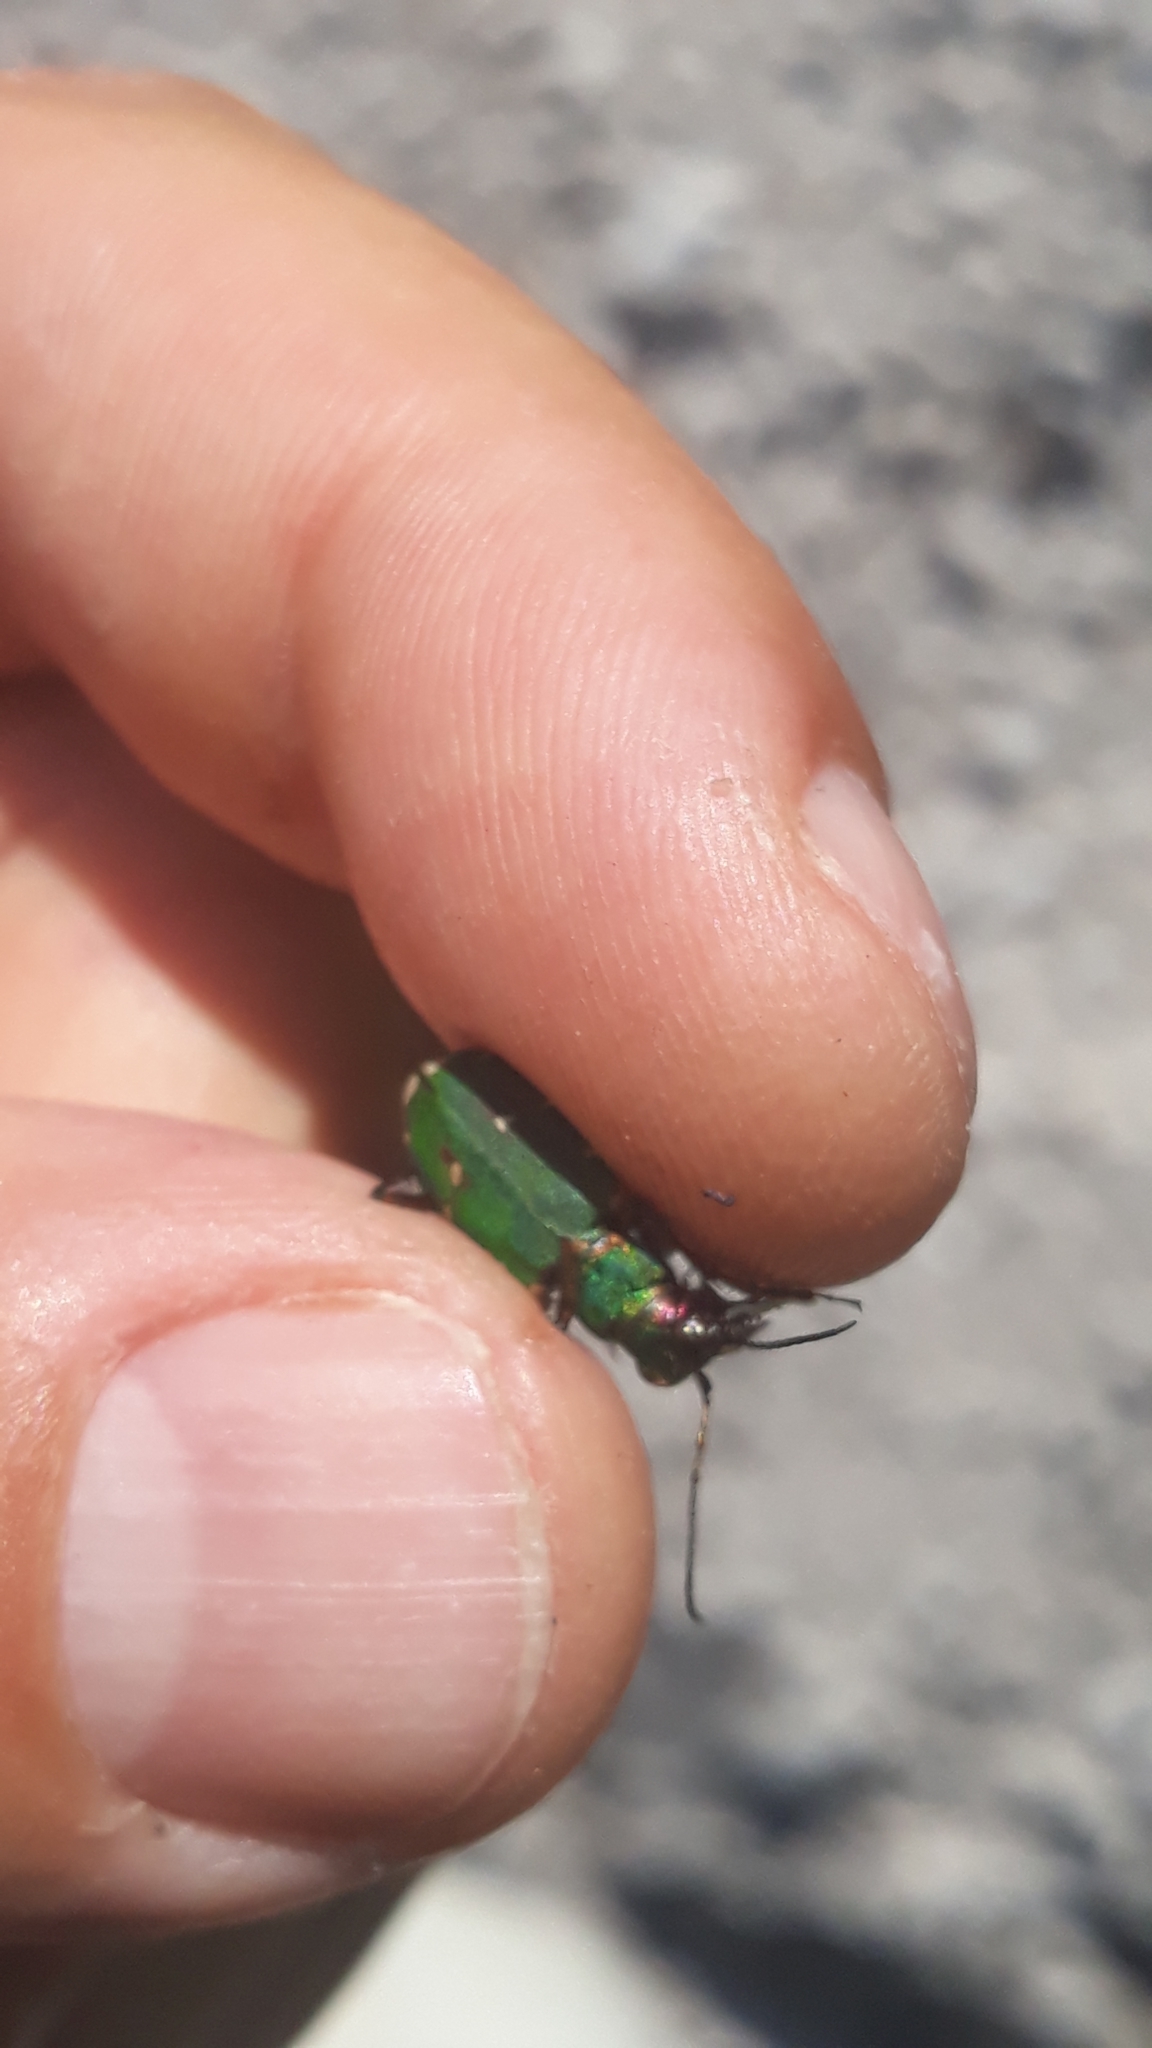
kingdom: Animalia
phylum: Arthropoda
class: Insecta
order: Coleoptera
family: Carabidae
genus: Cicindela
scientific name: Cicindela campestris
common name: Common tiger beetle
